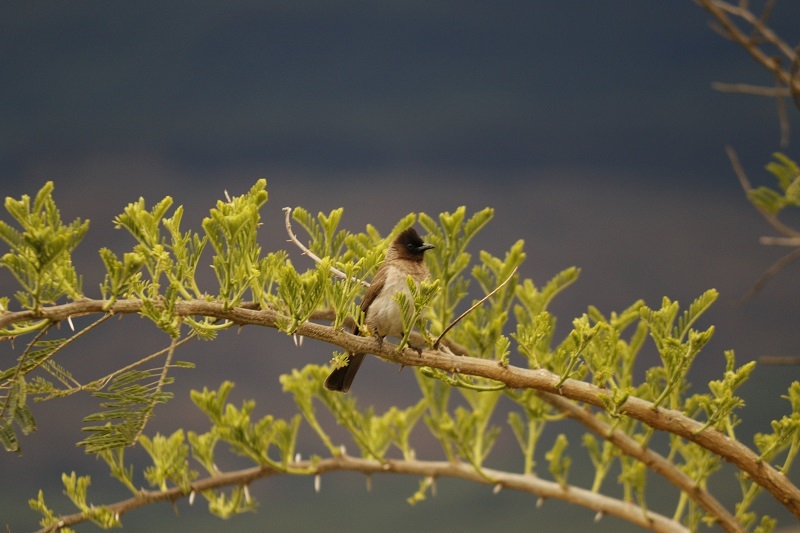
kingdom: Animalia
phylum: Chordata
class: Aves
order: Passeriformes
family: Pycnonotidae
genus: Pycnonotus
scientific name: Pycnonotus barbatus
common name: Common bulbul
